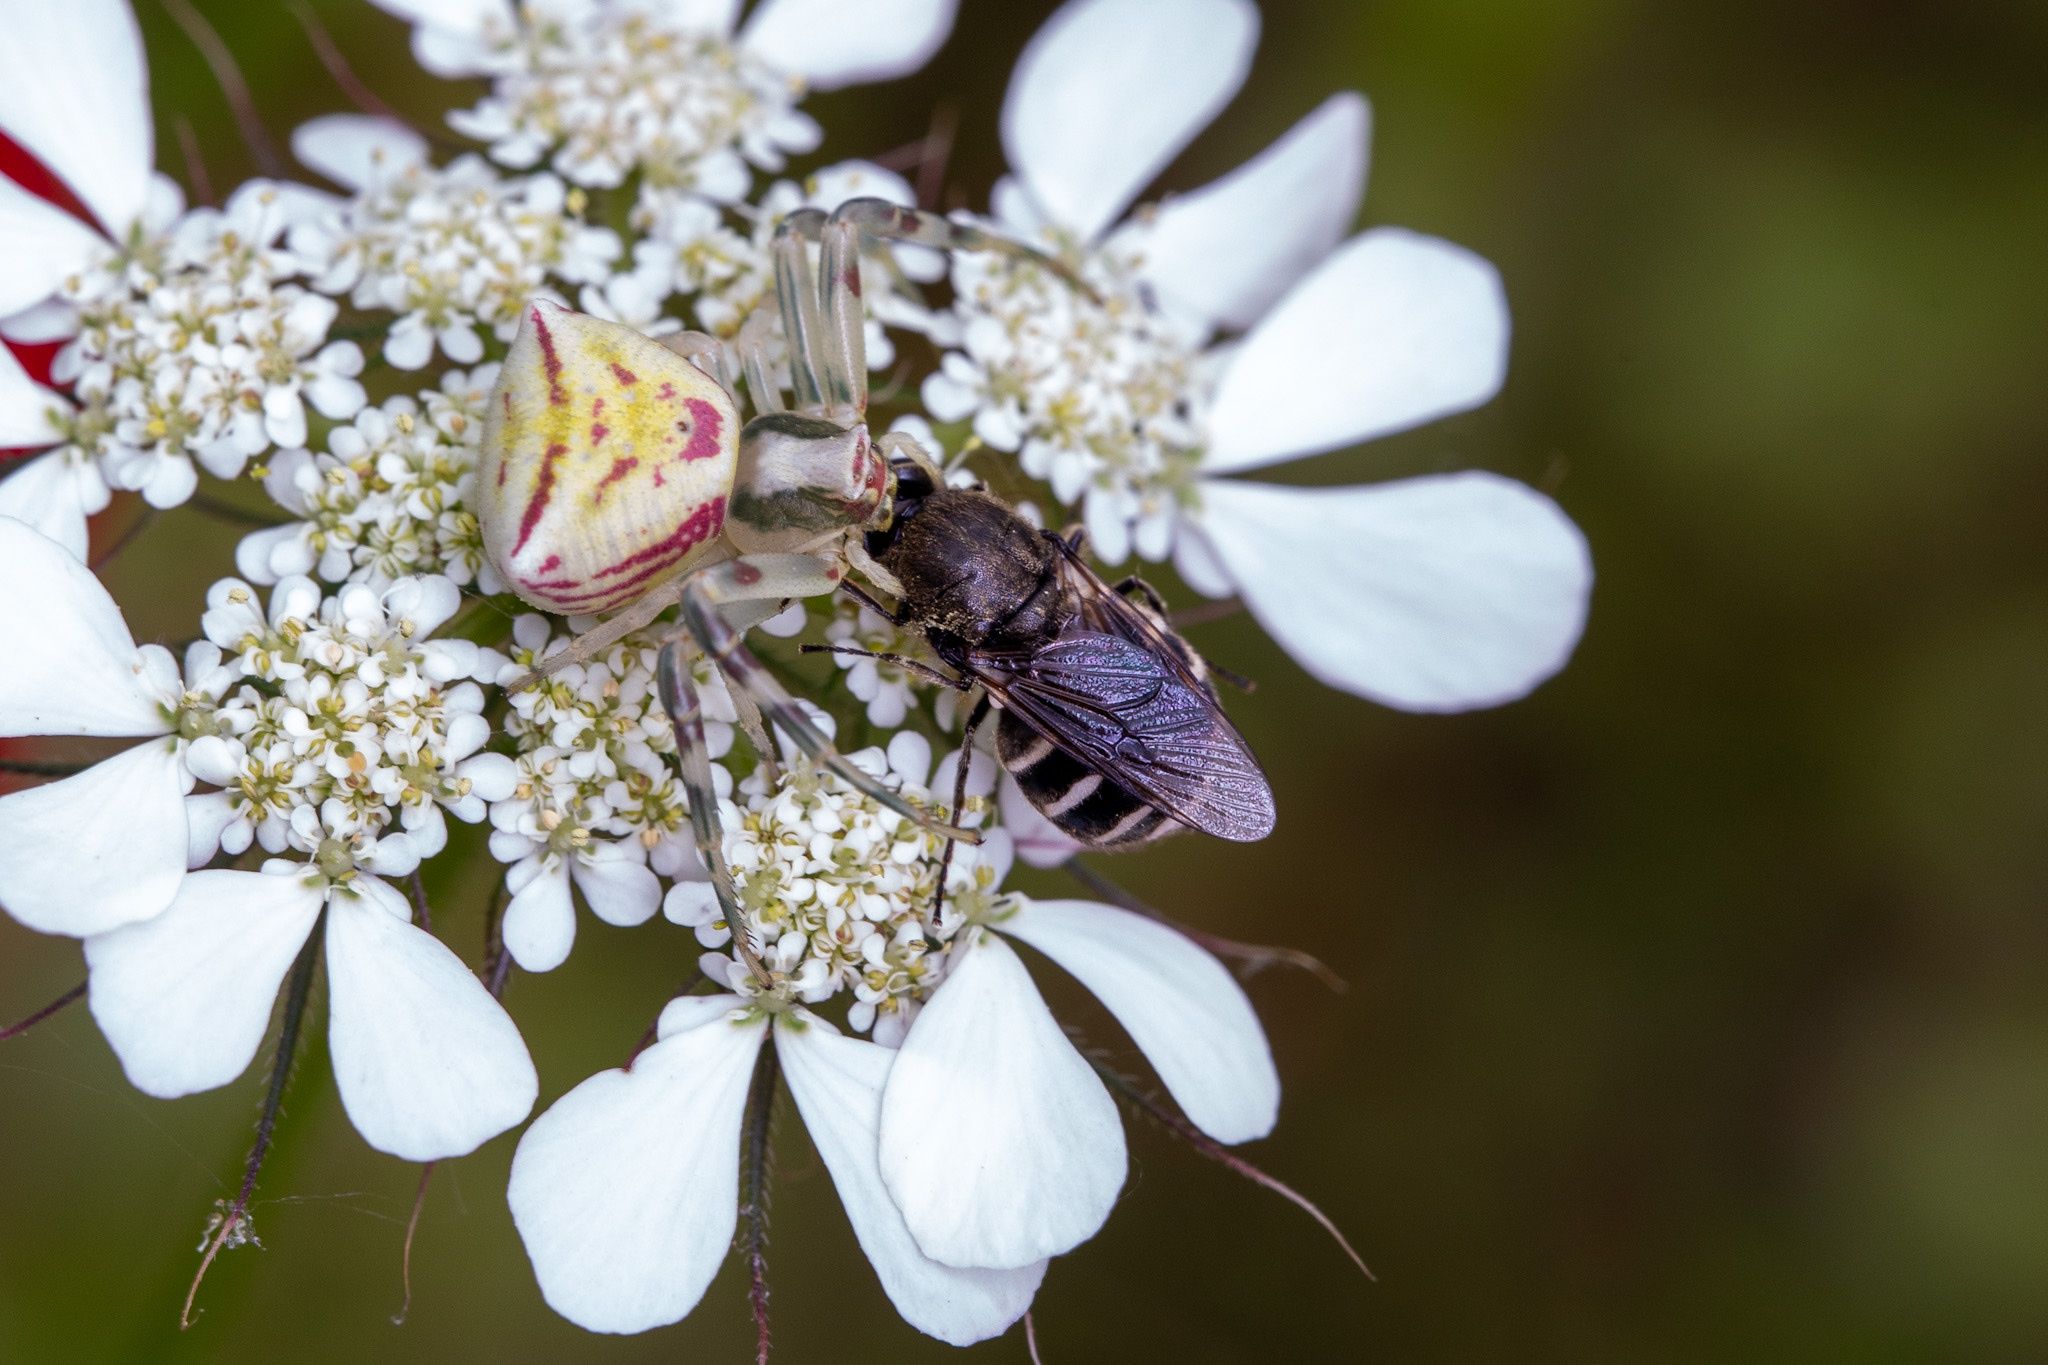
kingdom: Animalia
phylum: Arthropoda
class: Arachnida
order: Araneae
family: Thomisidae
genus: Thomisus
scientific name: Thomisus onustus
